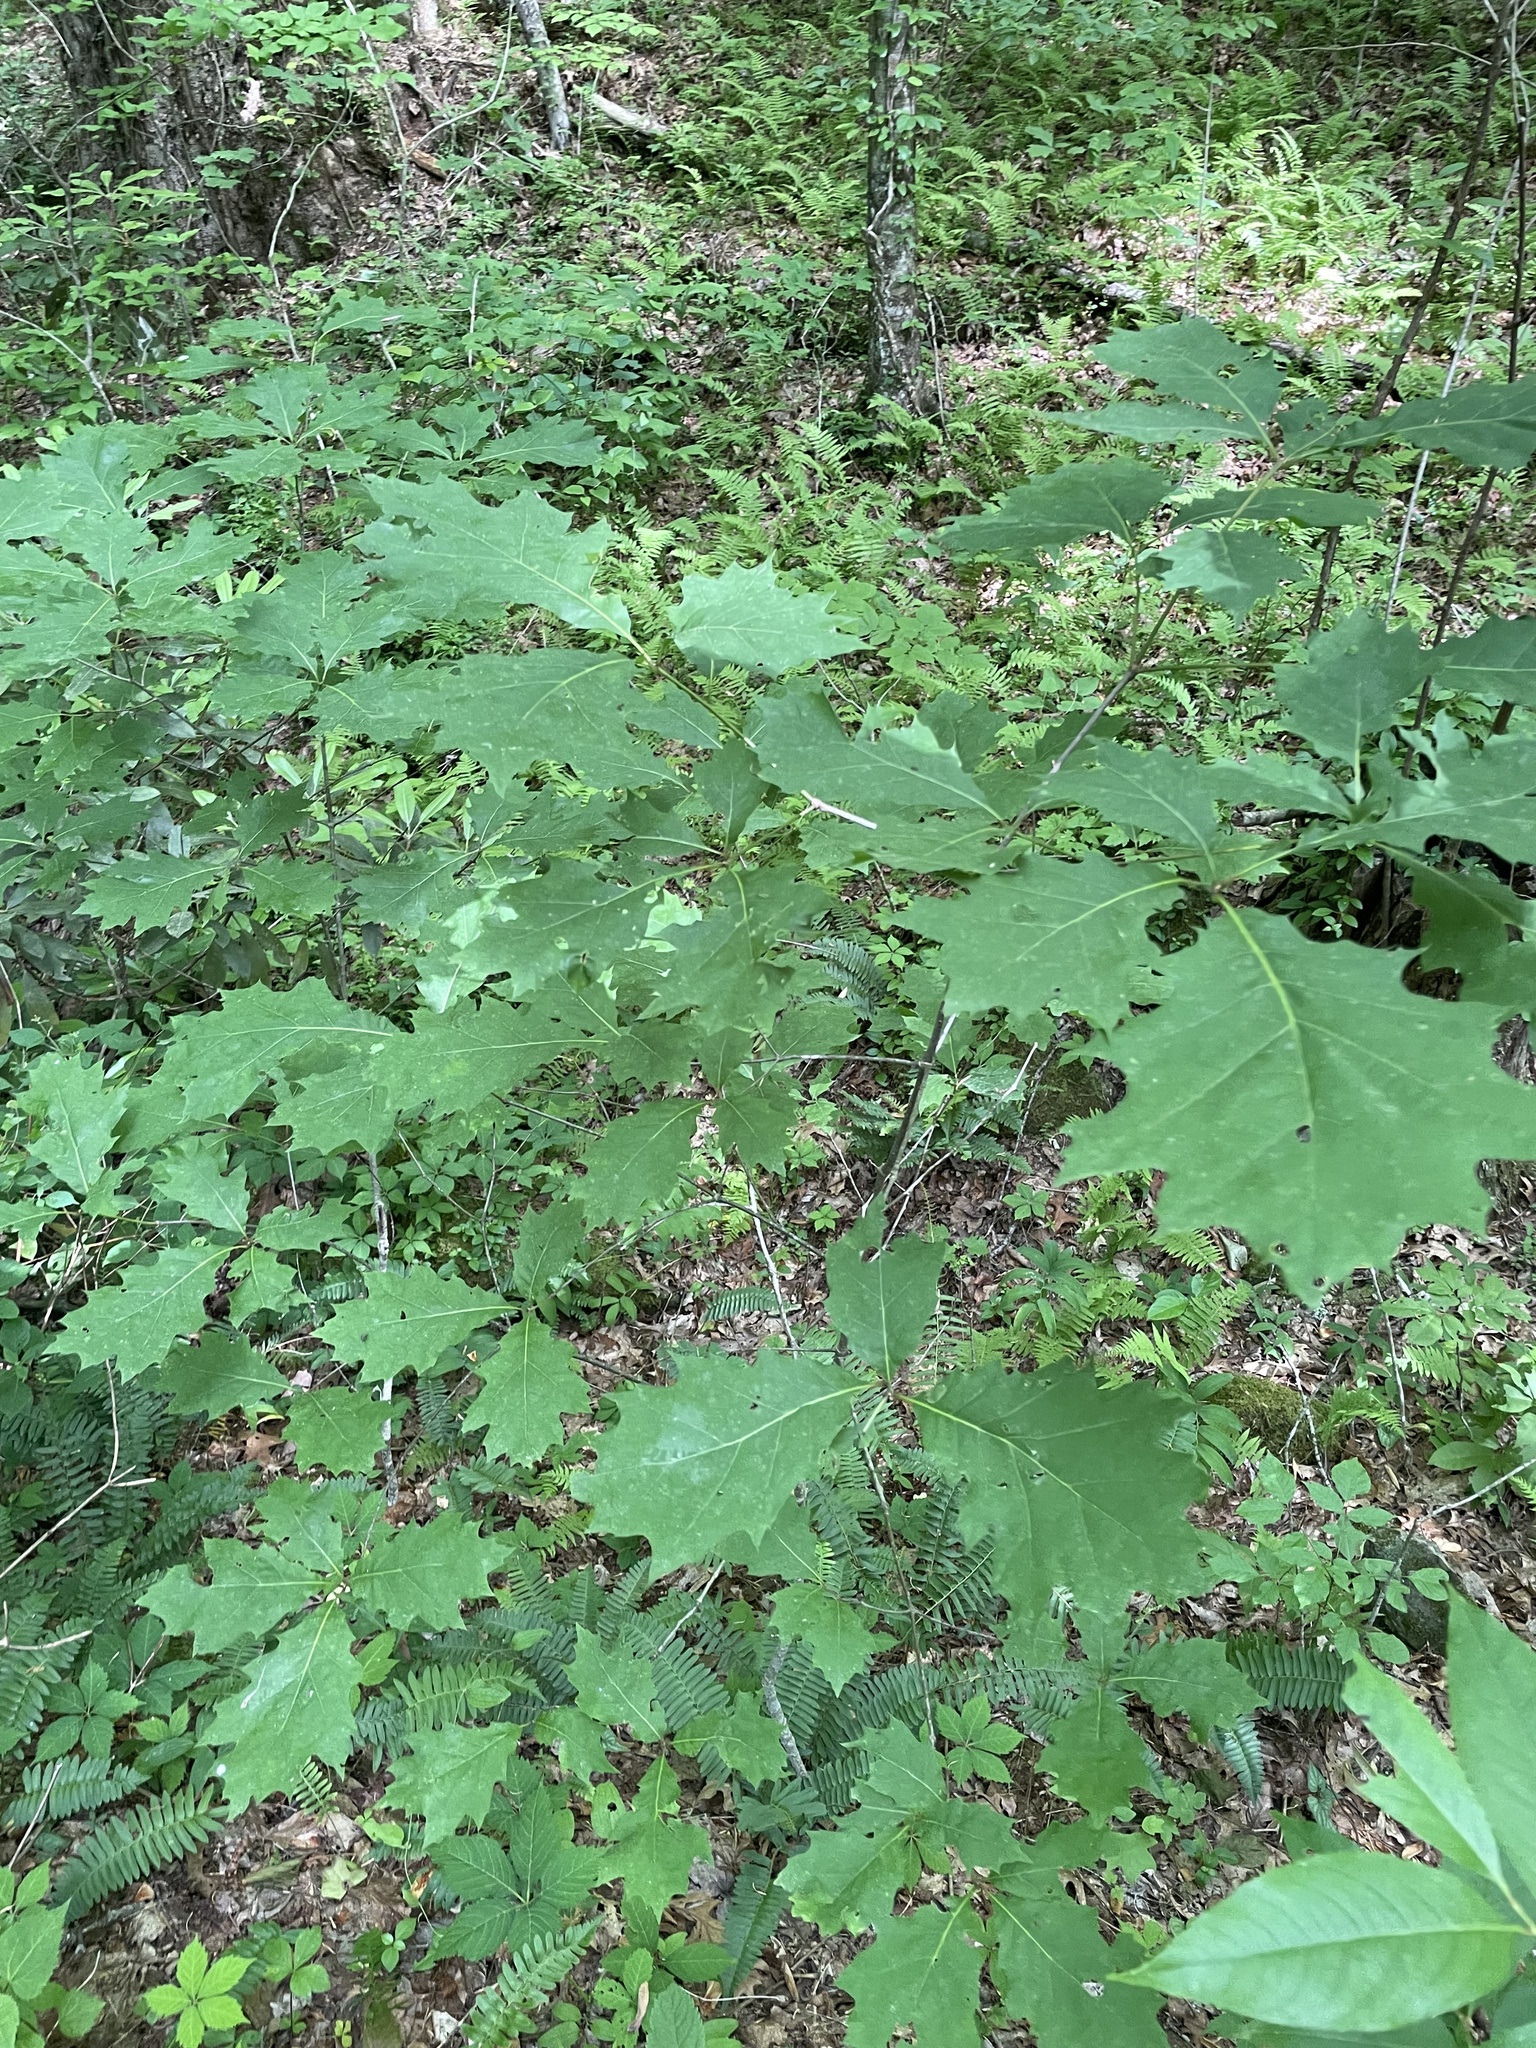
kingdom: Plantae
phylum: Tracheophyta
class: Magnoliopsida
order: Fagales
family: Fagaceae
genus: Quercus
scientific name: Quercus rubra
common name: Red oak
